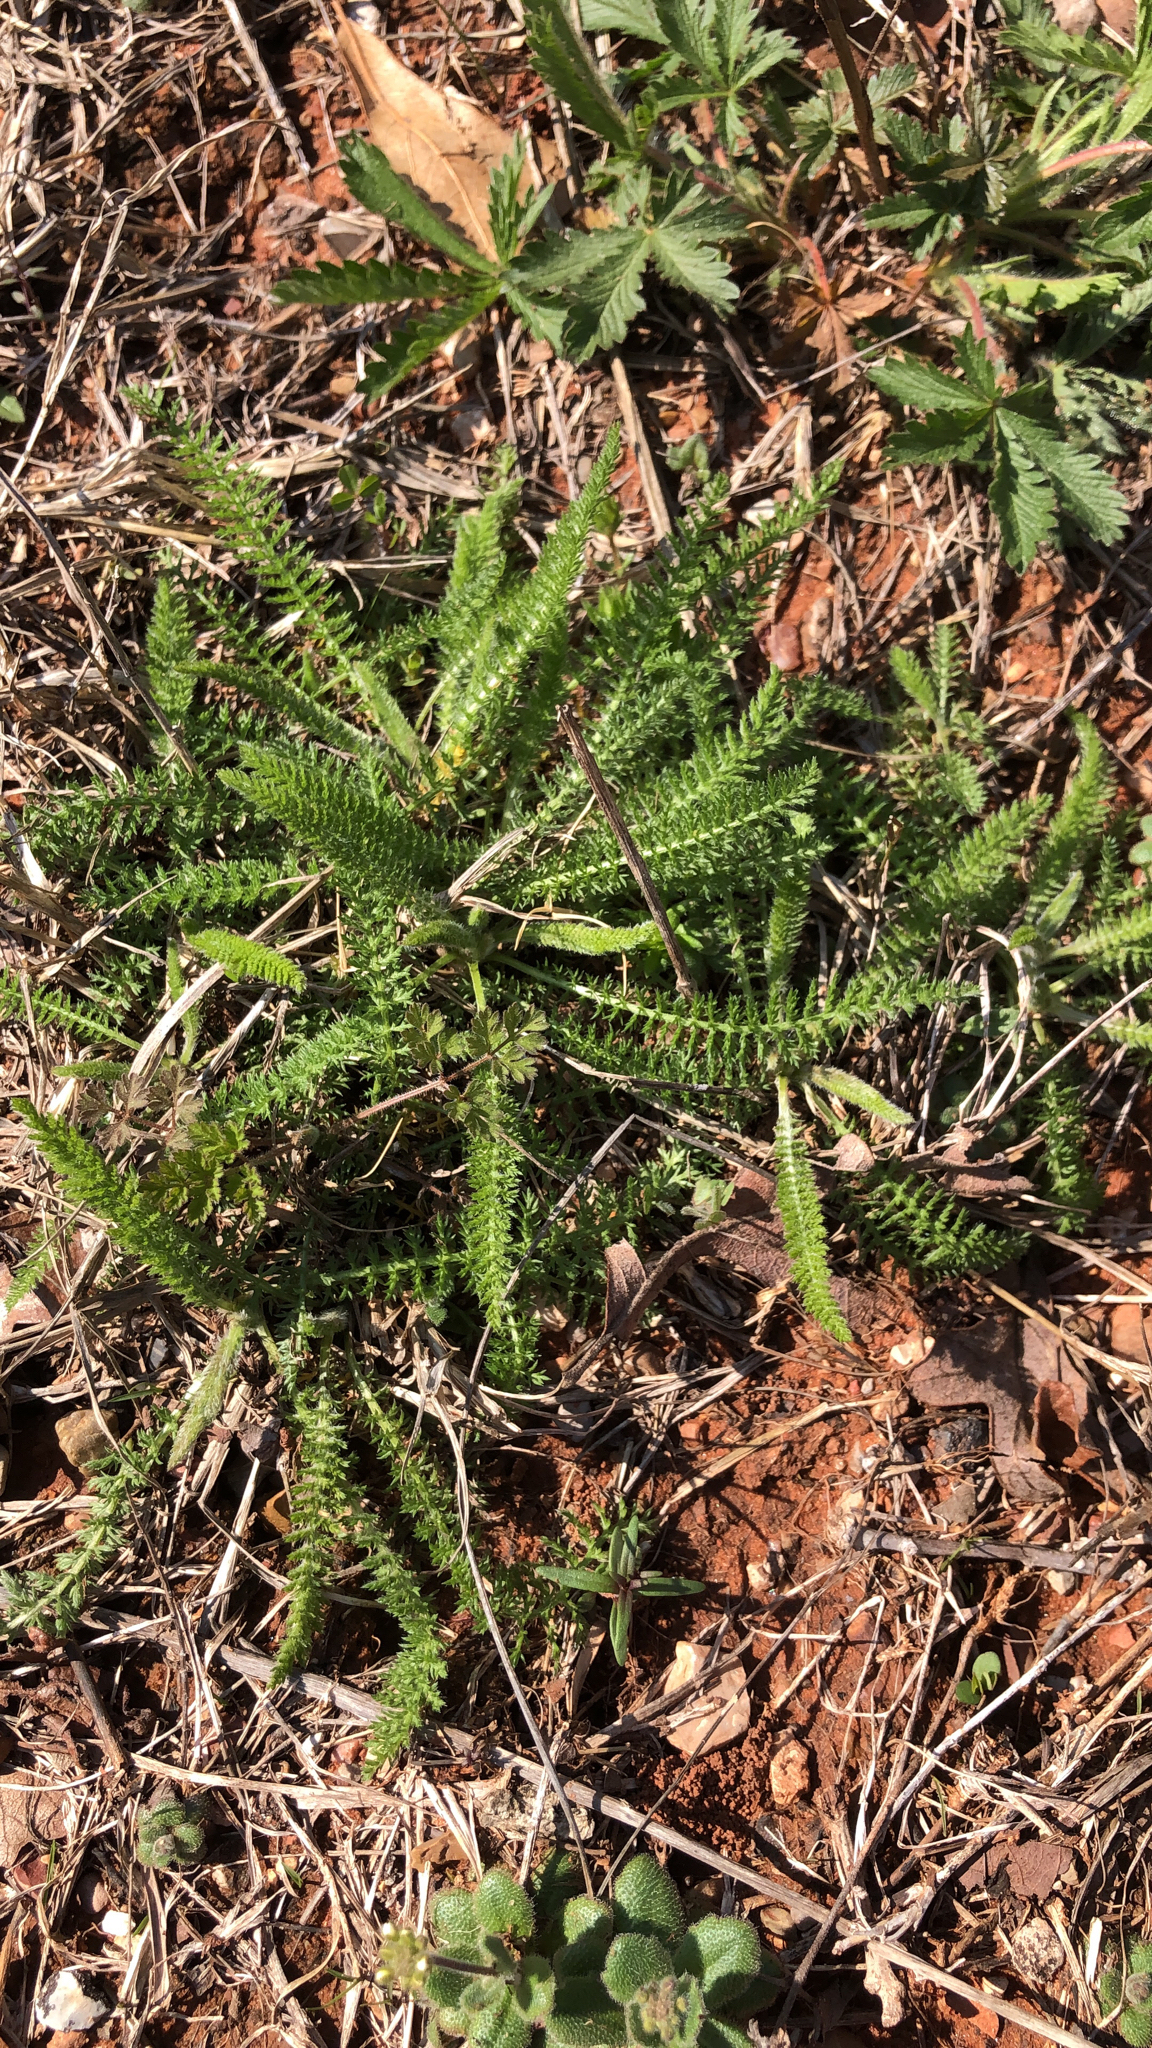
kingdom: Plantae
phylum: Tracheophyta
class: Magnoliopsida
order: Asterales
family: Asteraceae
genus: Achillea
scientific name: Achillea millefolium
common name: Yarrow
